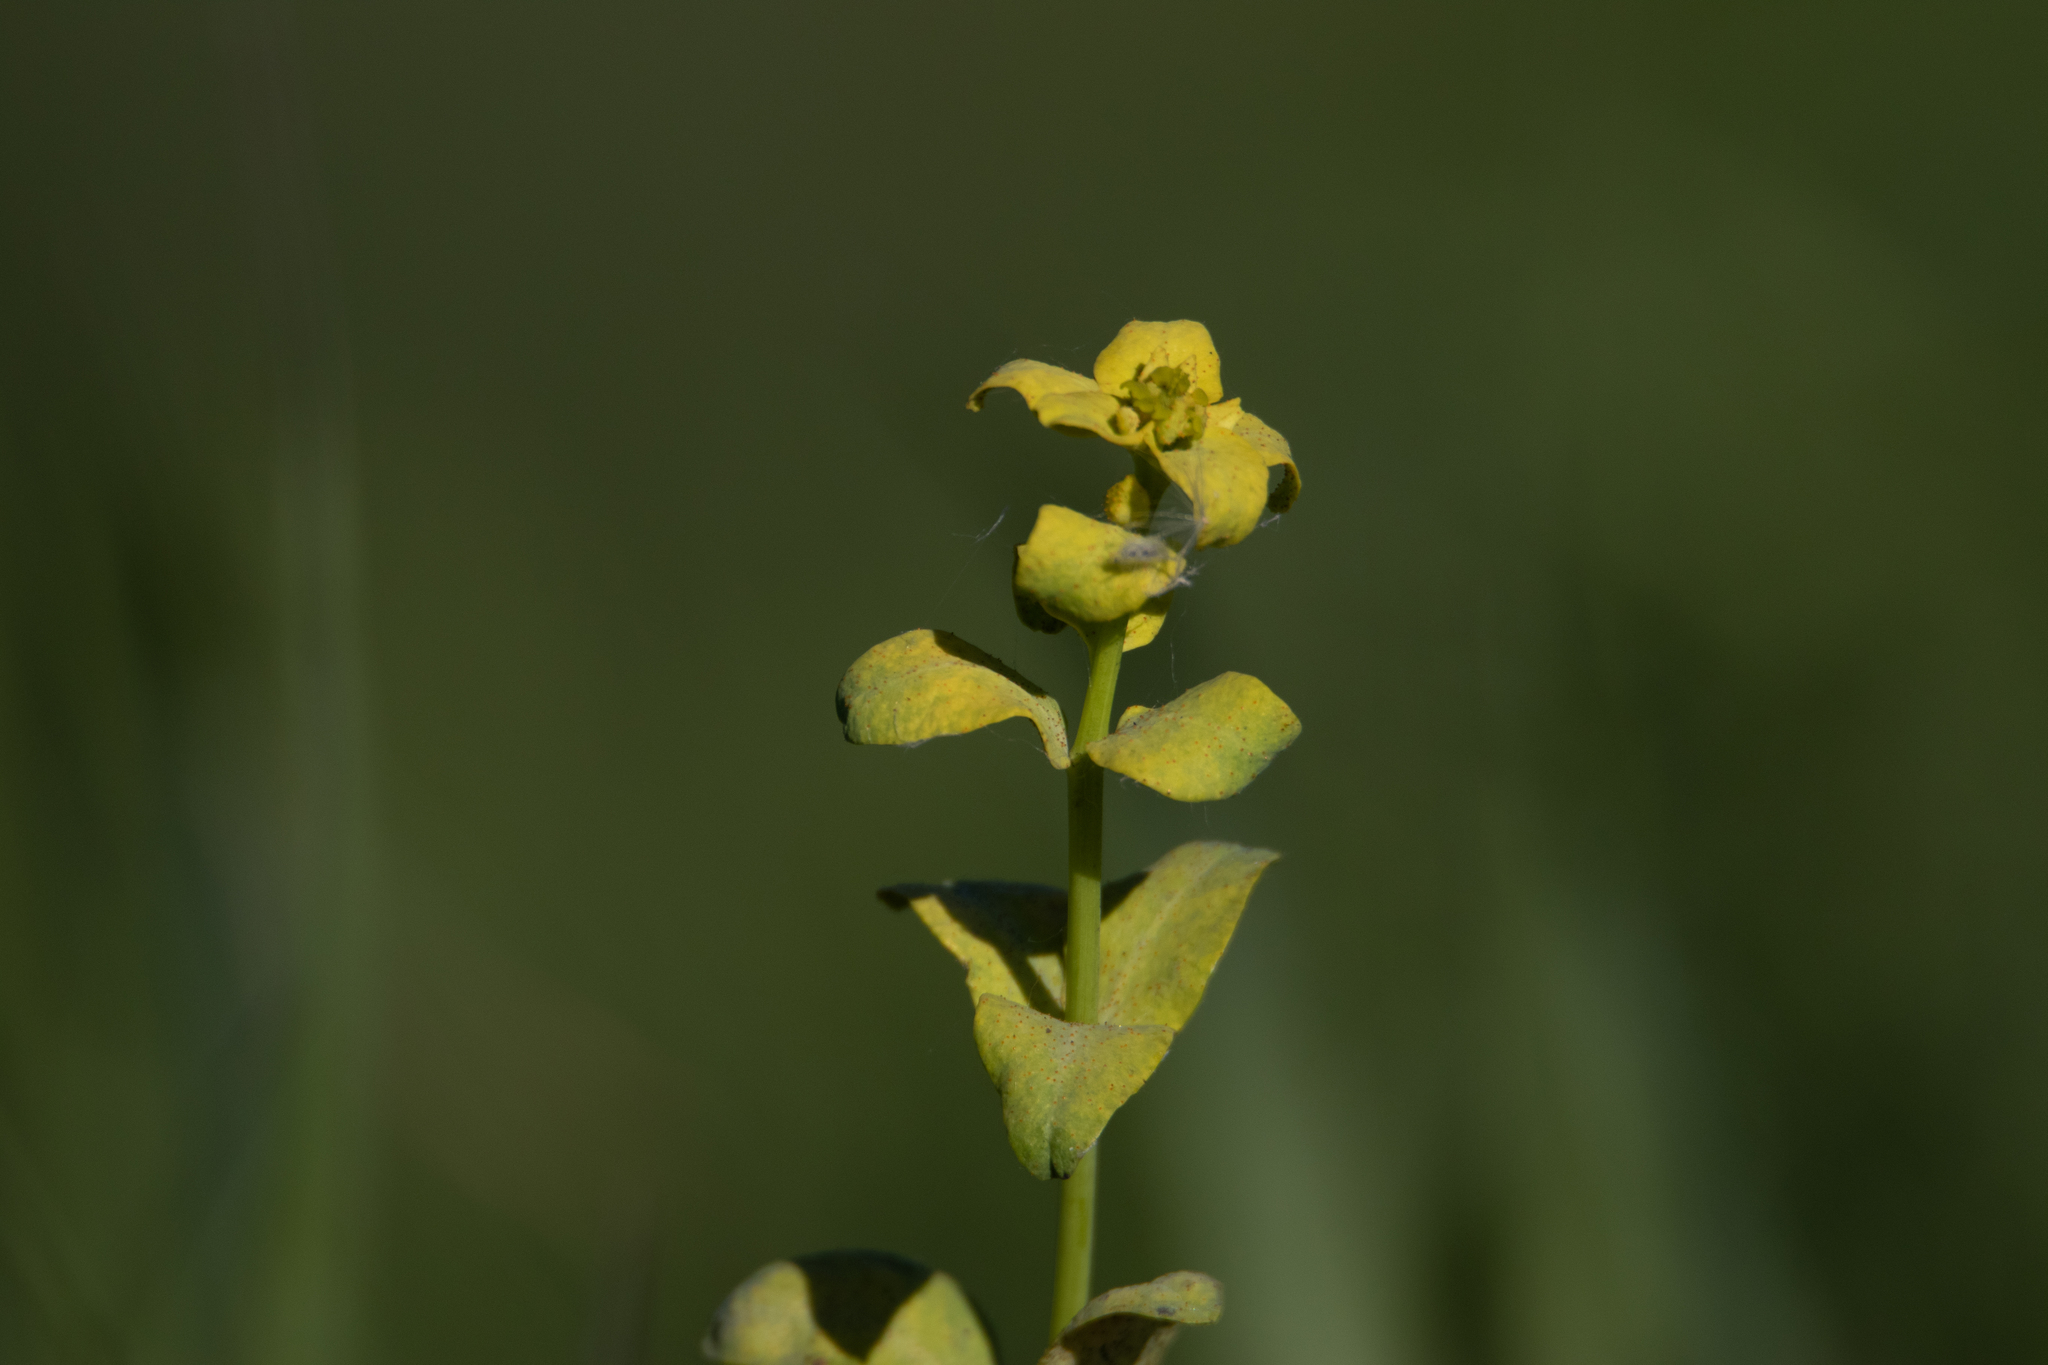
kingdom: Plantae
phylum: Tracheophyta
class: Magnoliopsida
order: Malpighiales
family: Euphorbiaceae
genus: Euphorbia
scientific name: Euphorbia virgata
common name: Leafy spurge
